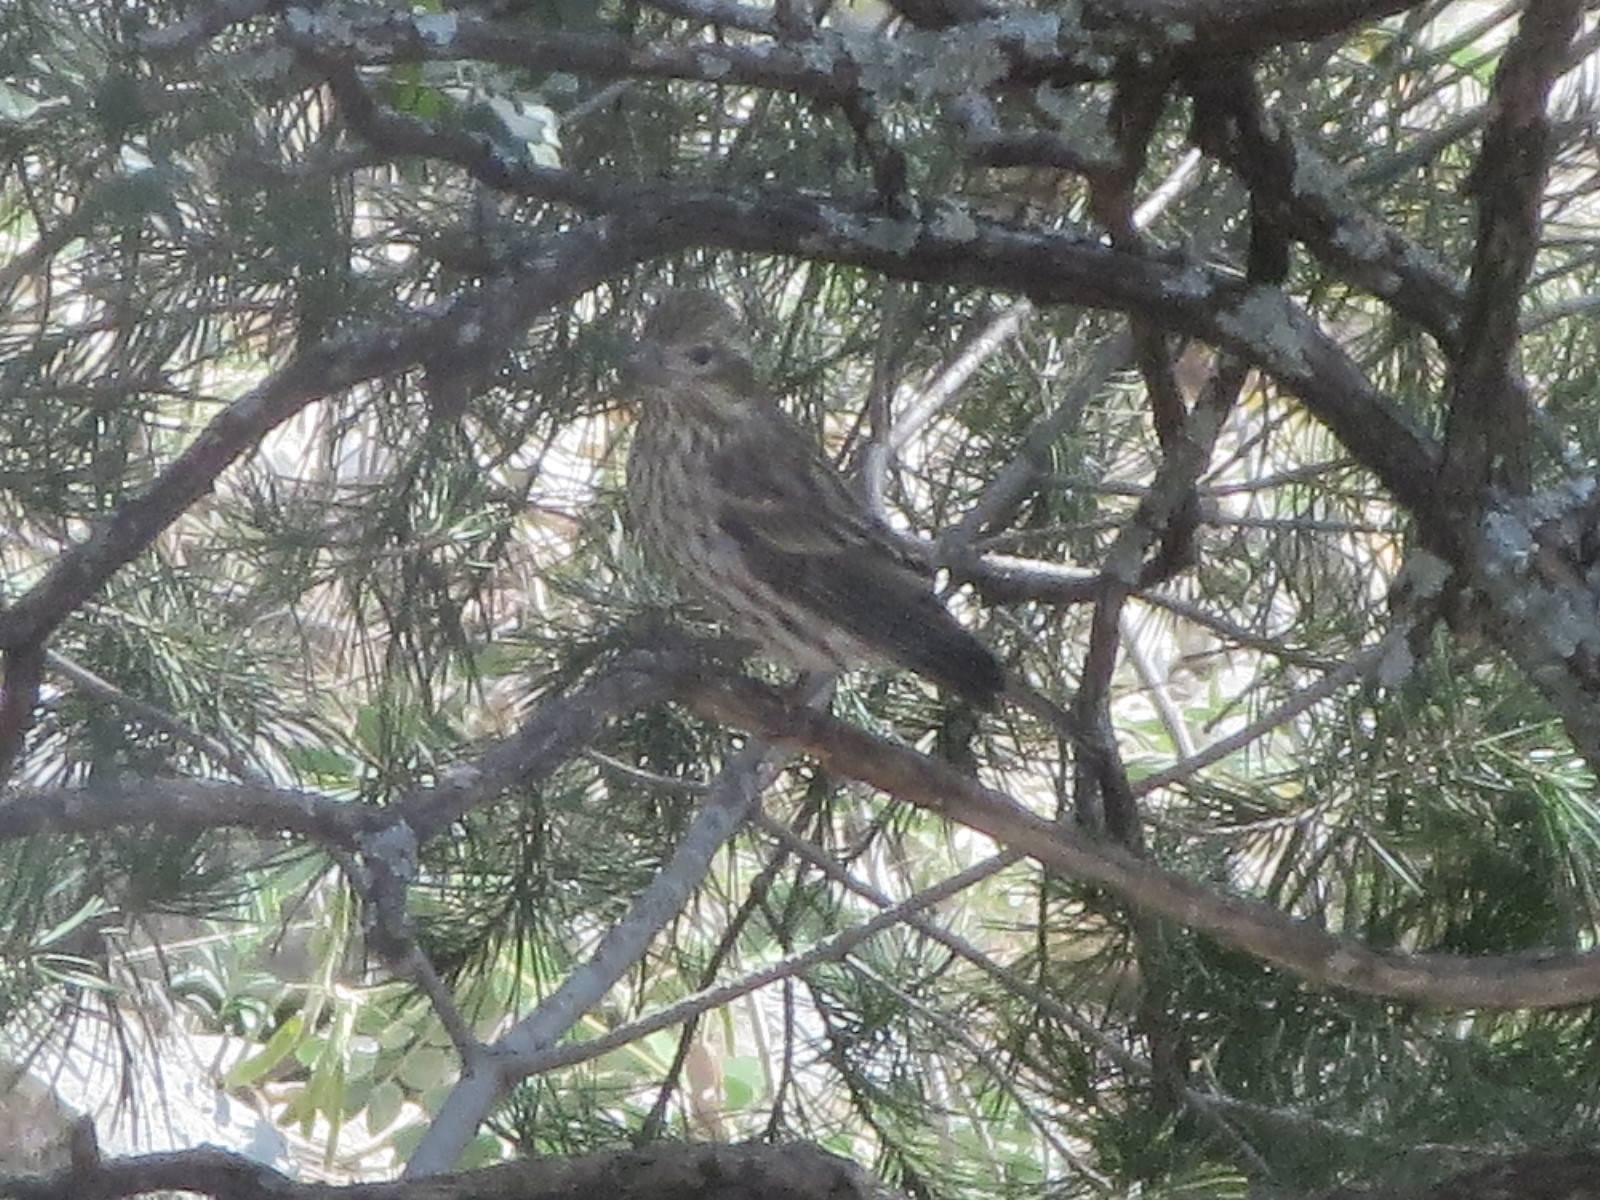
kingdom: Animalia
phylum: Chordata
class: Aves
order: Passeriformes
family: Fringillidae
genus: Haemorhous
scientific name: Haemorhous cassinii
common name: Cassin's finch
